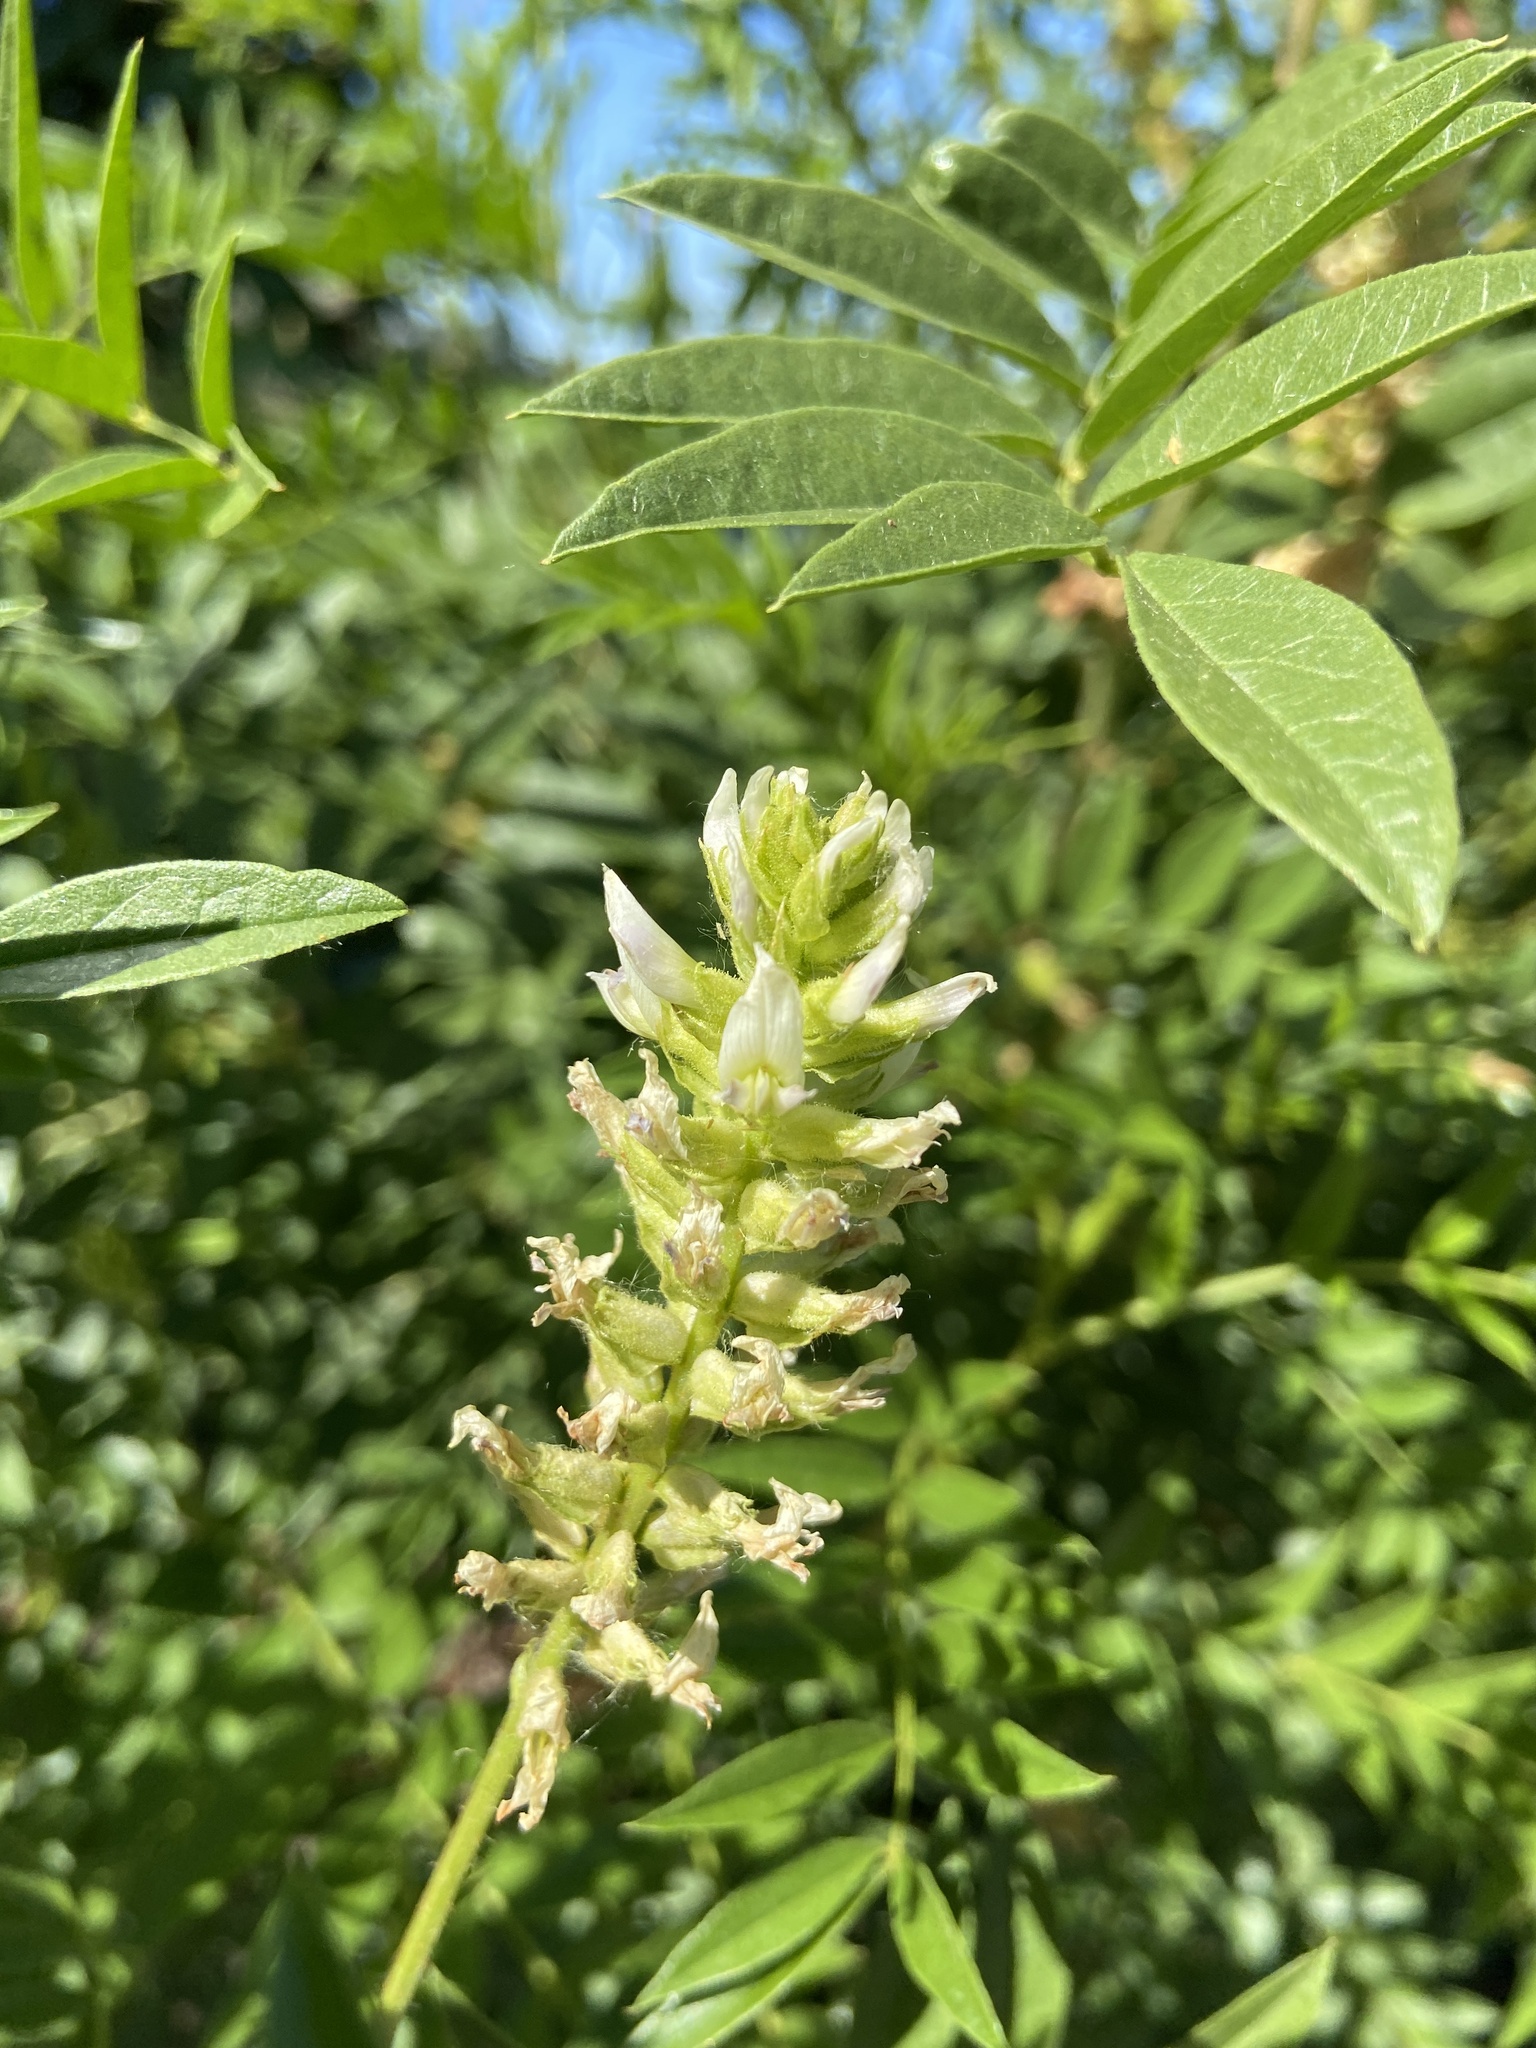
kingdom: Plantae
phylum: Tracheophyta
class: Magnoliopsida
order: Fabales
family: Fabaceae
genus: Glycyrrhiza
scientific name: Glycyrrhiza lepidota
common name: American liquorice
